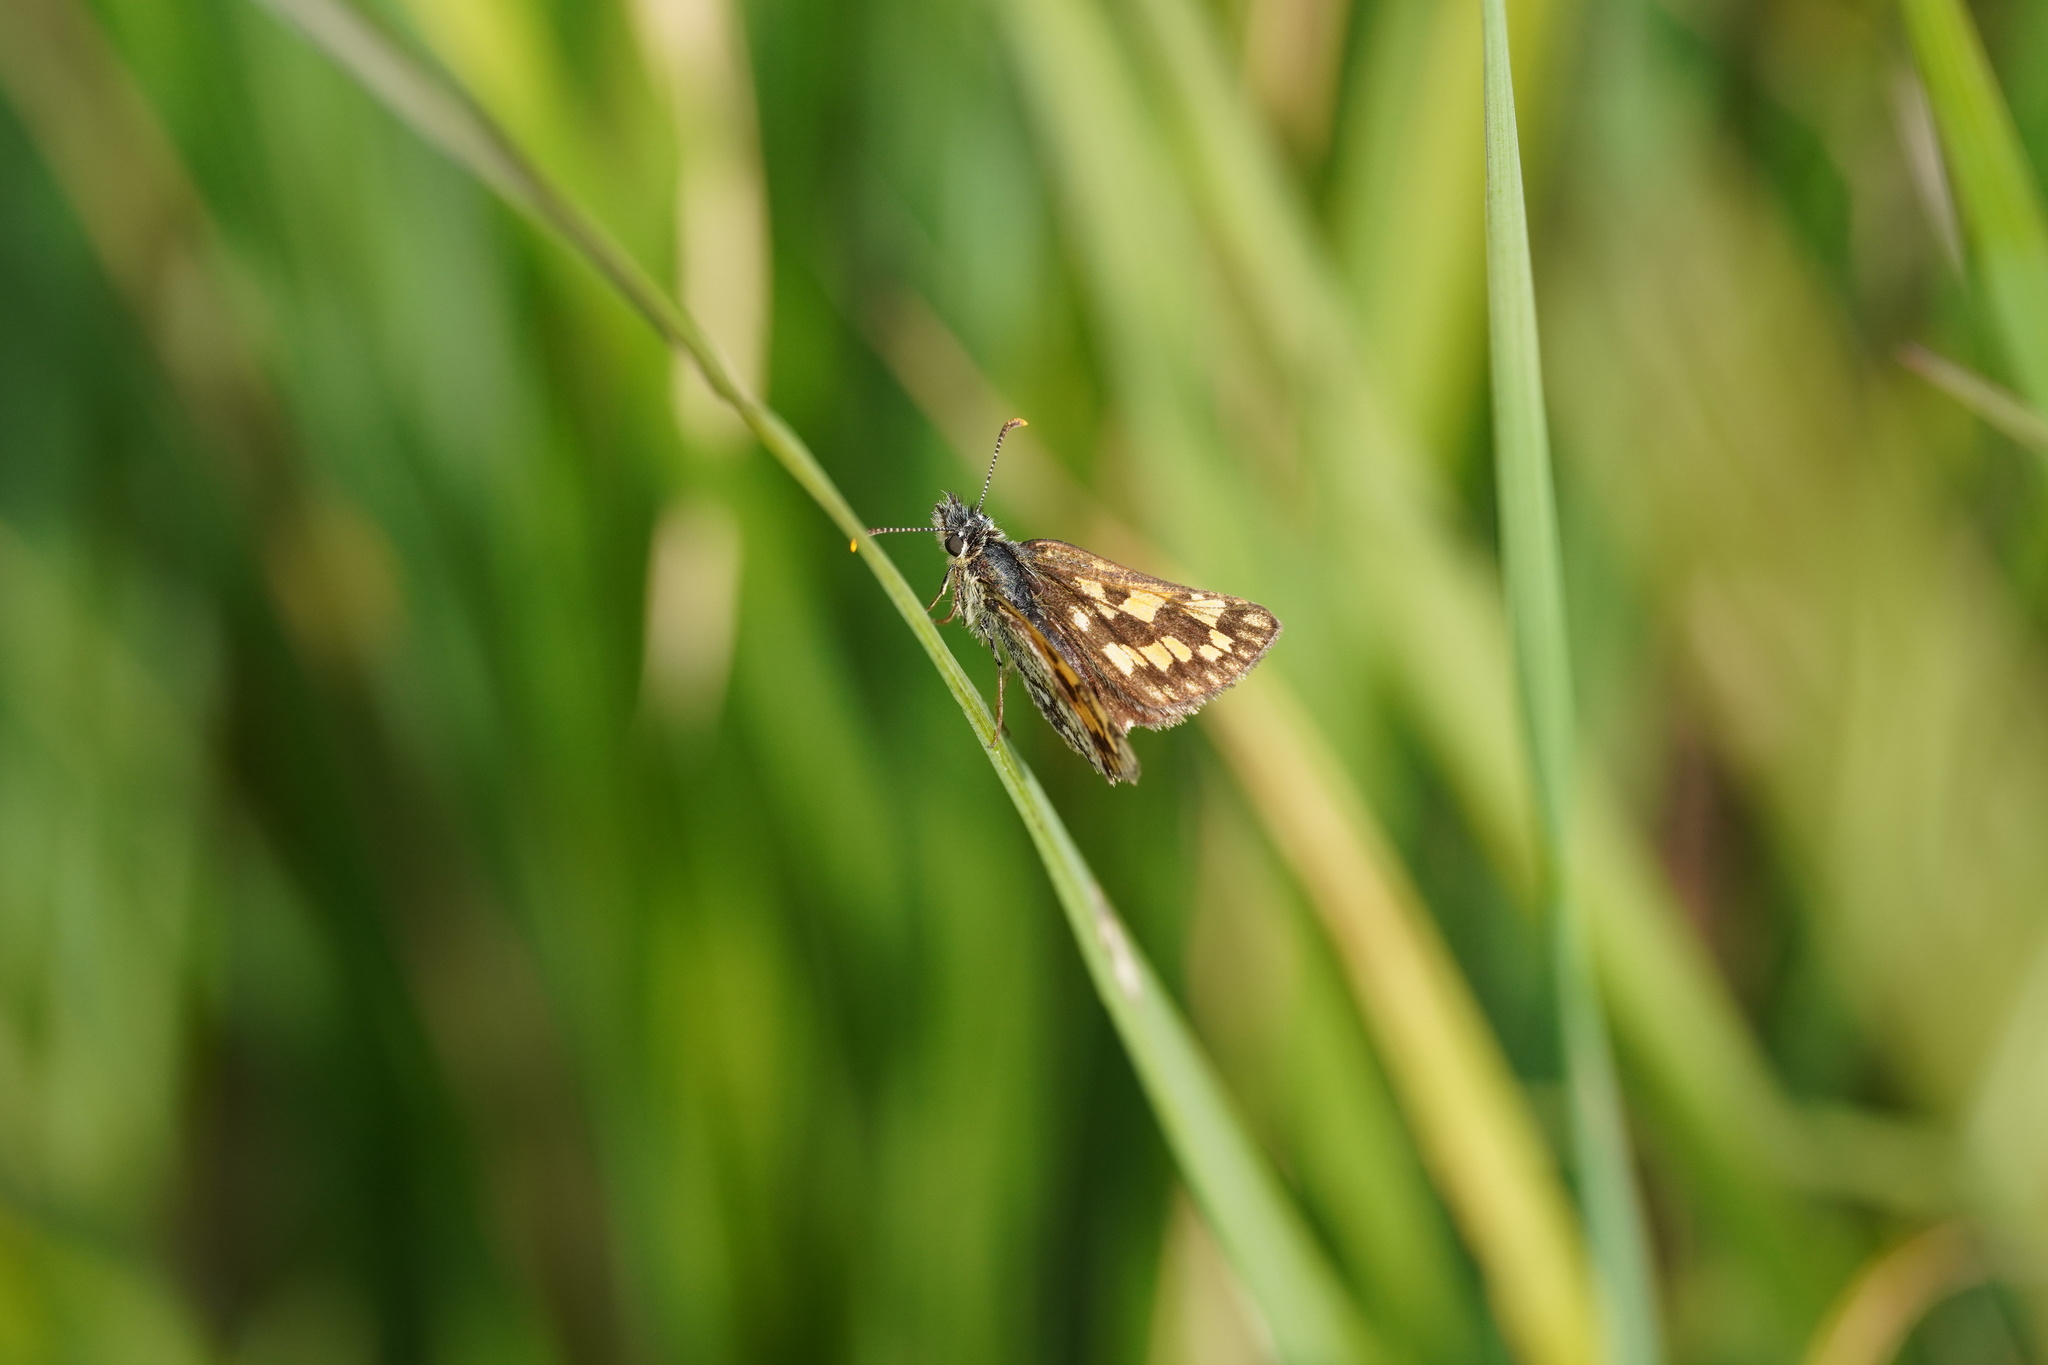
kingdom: Animalia
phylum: Arthropoda
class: Insecta
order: Lepidoptera
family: Hesperiidae
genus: Carterocephalus
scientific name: Carterocephalus palaemon
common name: Chequered skipper
